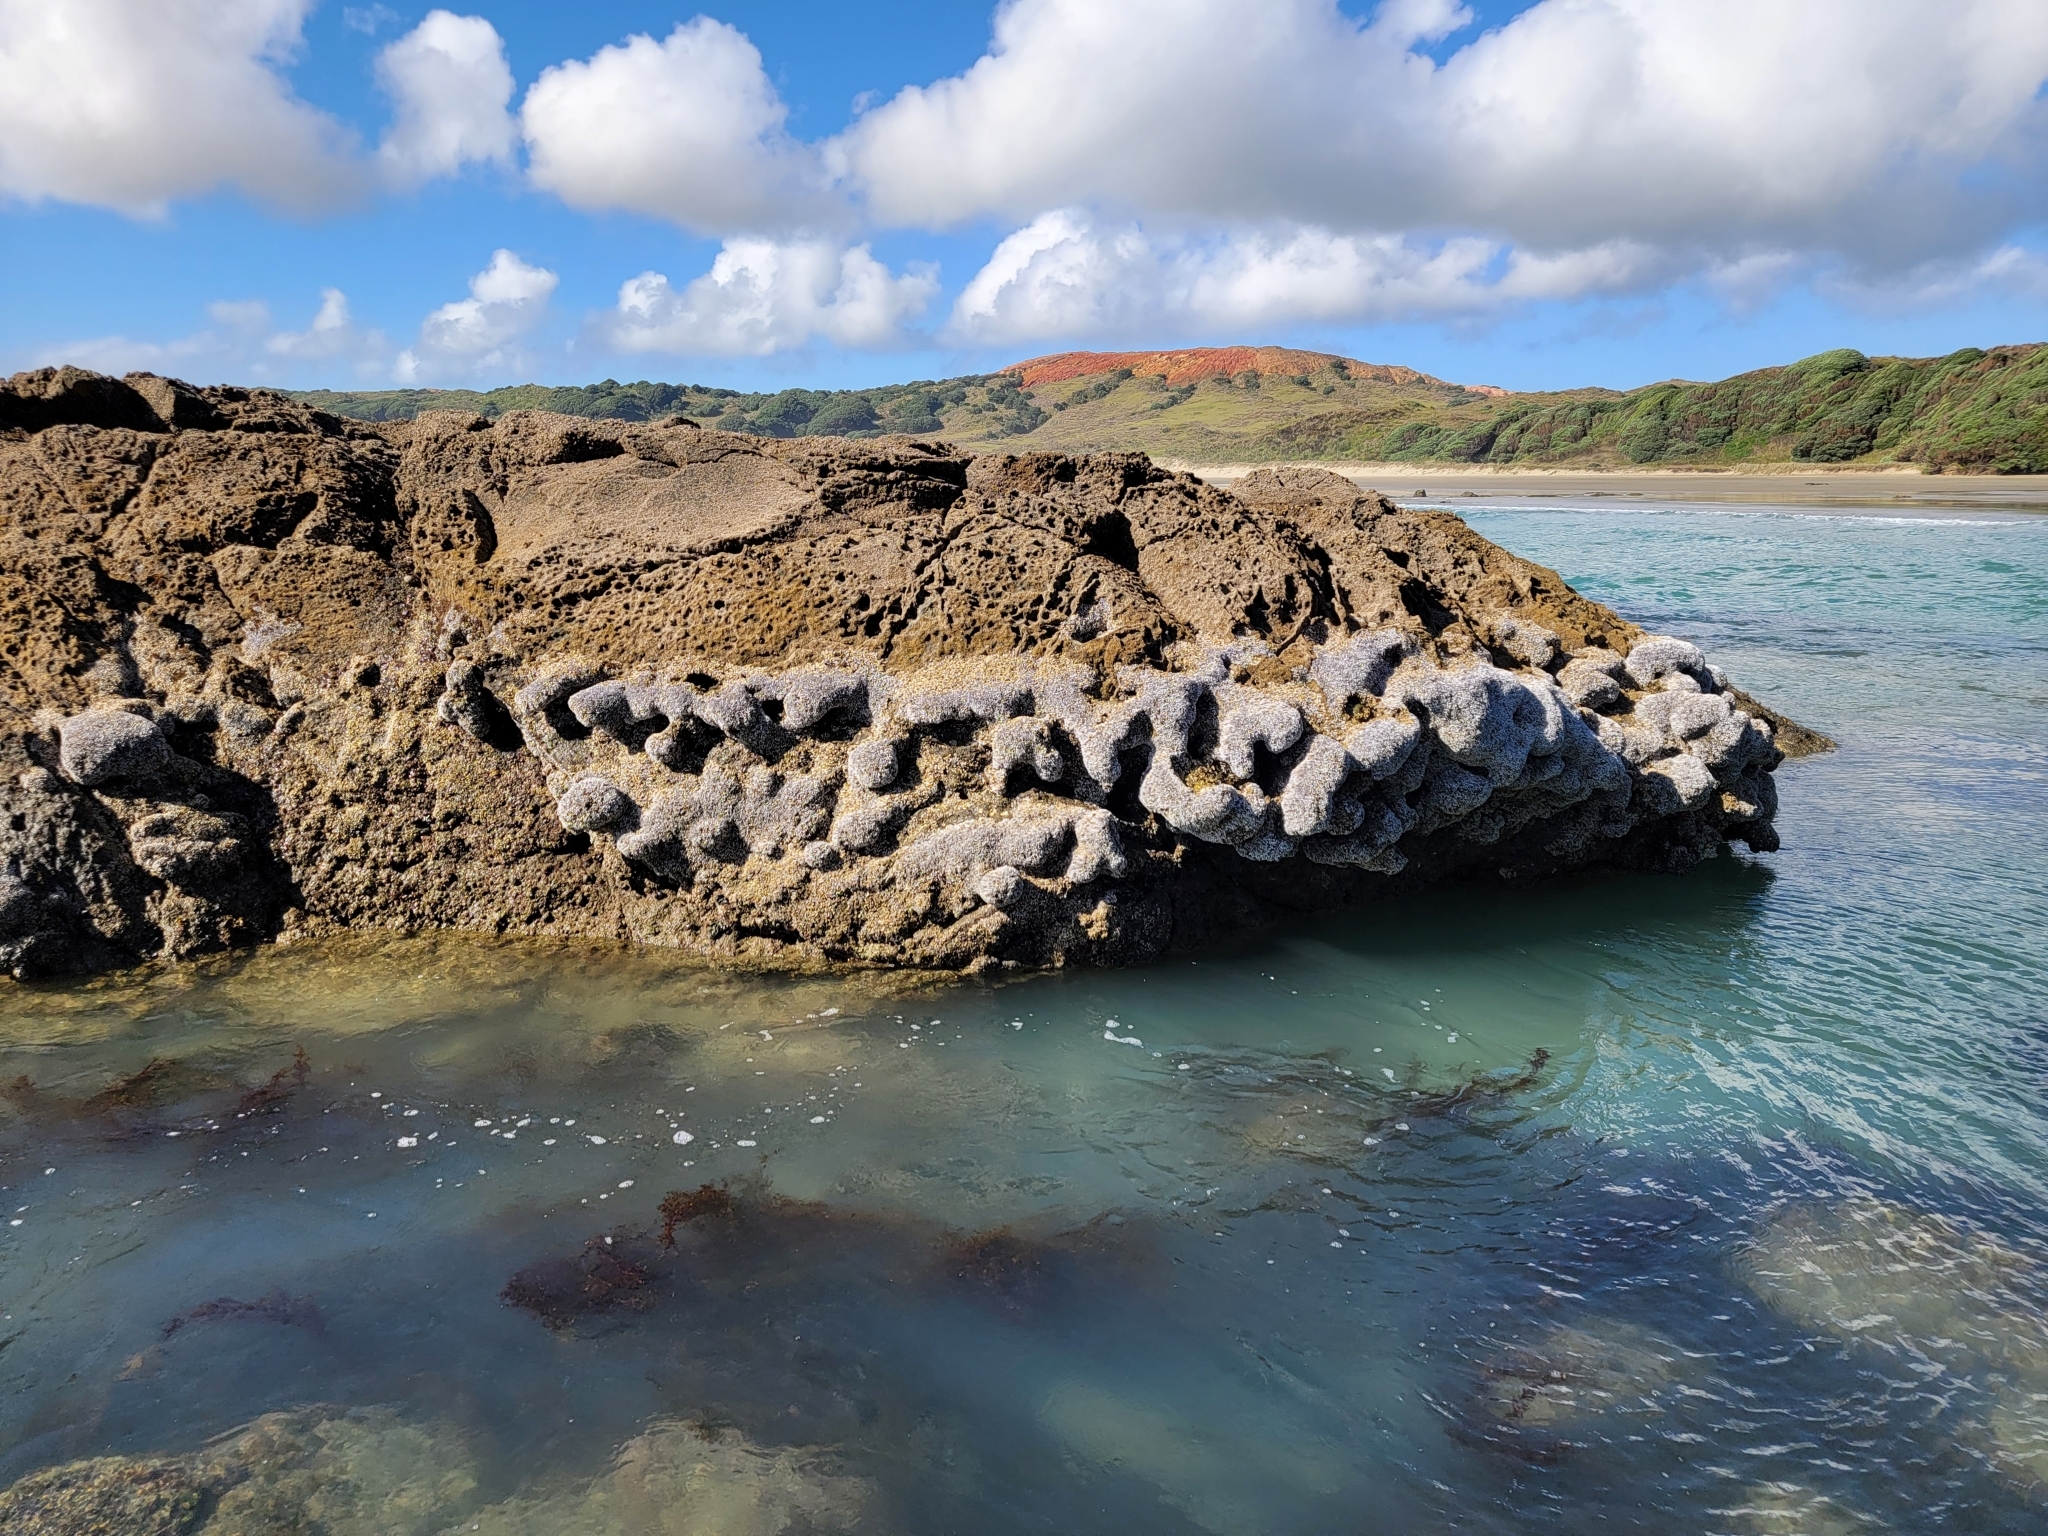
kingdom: Animalia
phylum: Annelida
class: Polychaeta
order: Sabellida
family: Serpulidae
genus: Spirobranchus
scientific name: Spirobranchus cariniferus
